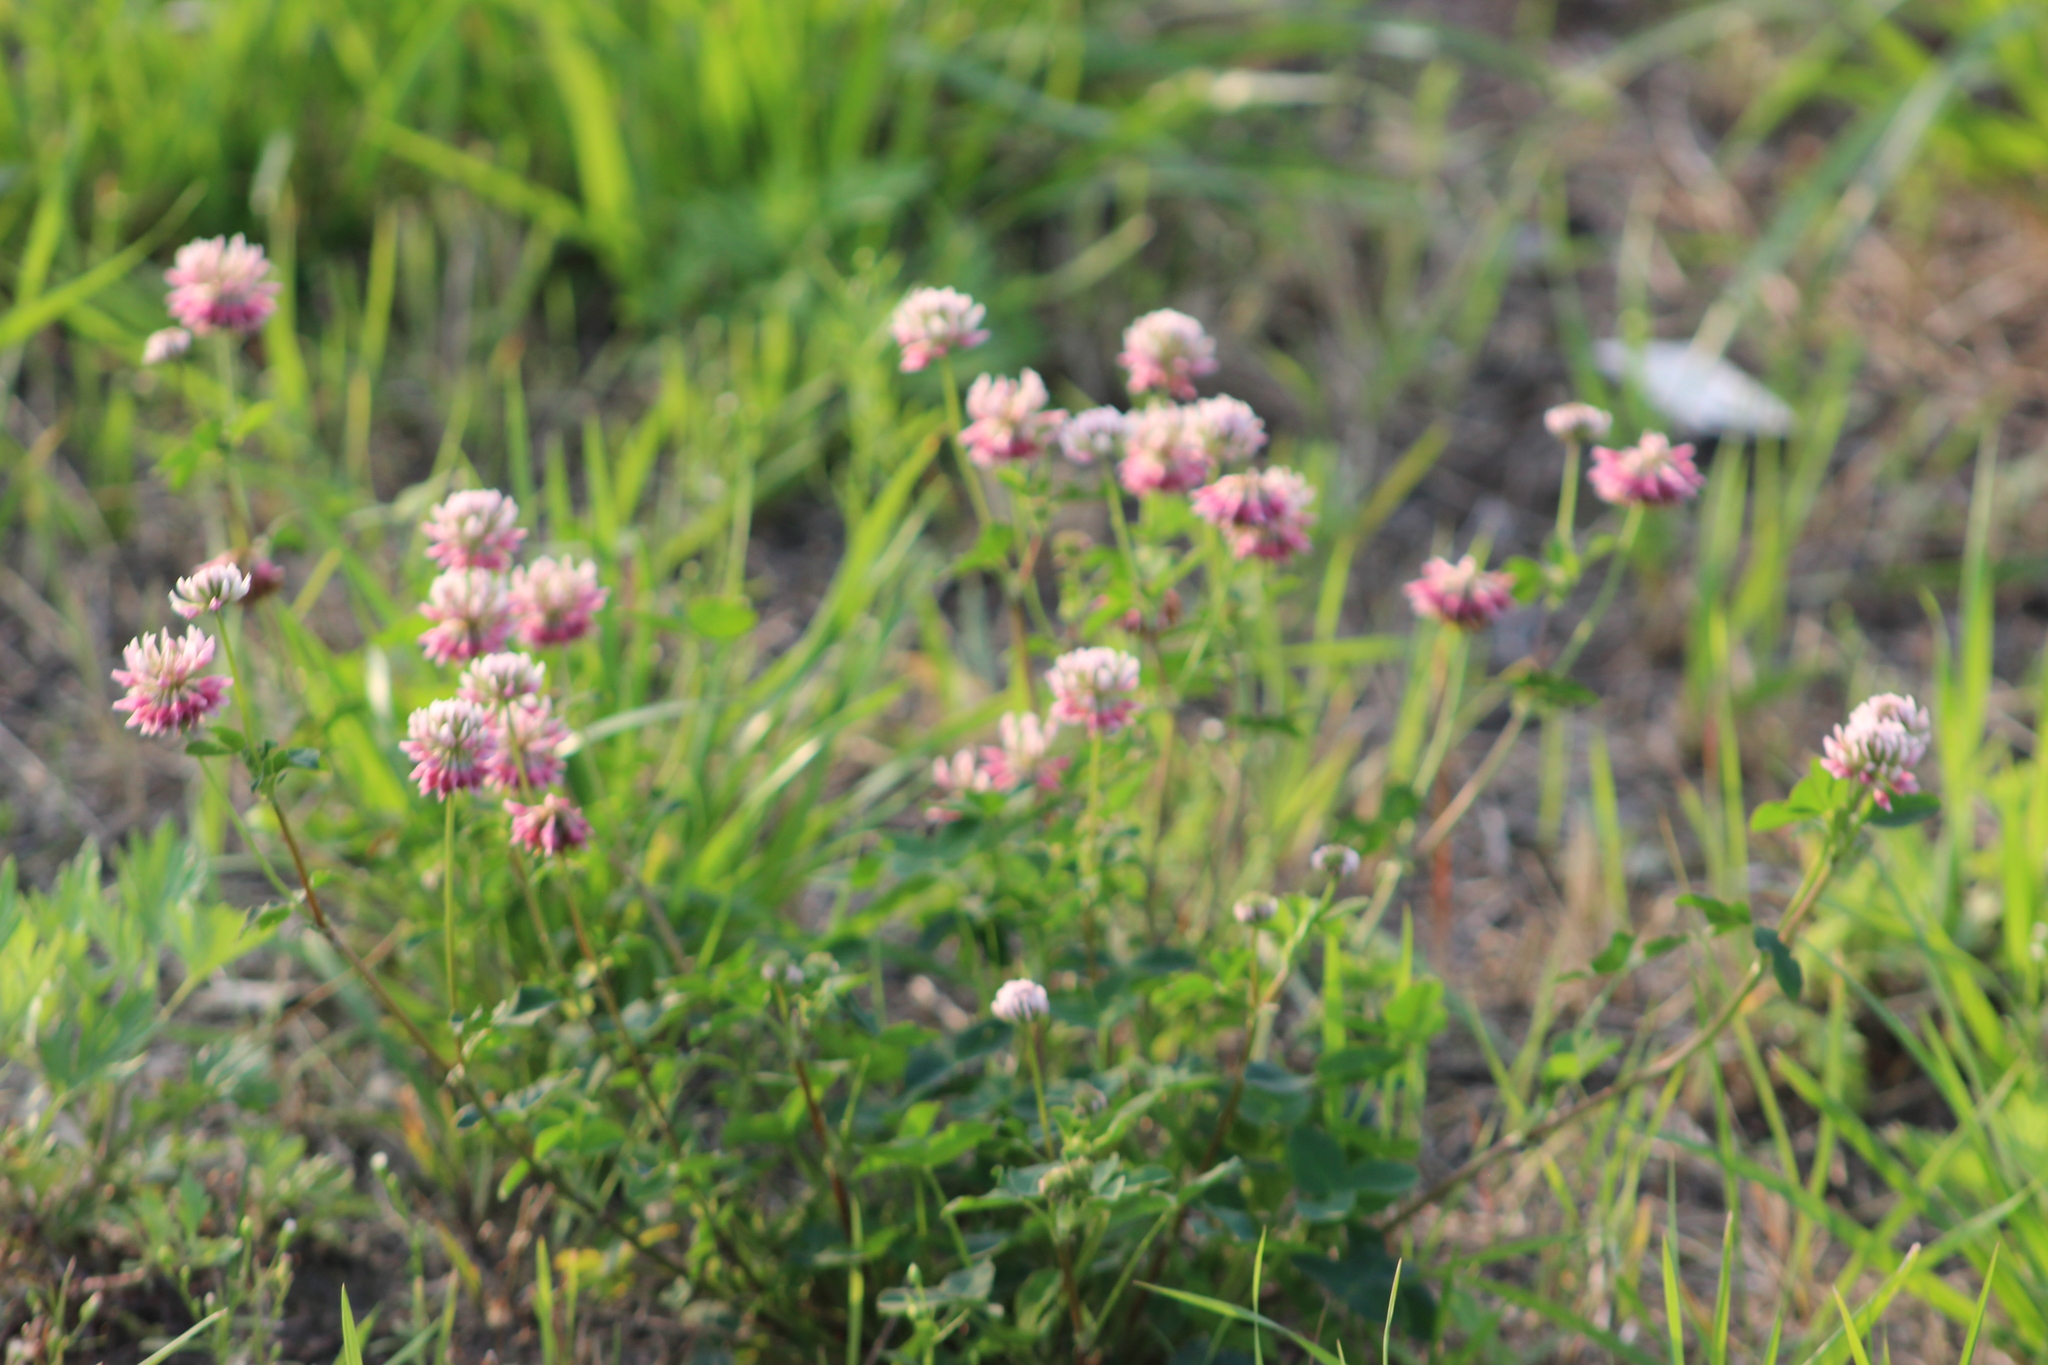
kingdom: Plantae
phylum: Tracheophyta
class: Magnoliopsida
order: Fabales
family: Fabaceae
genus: Trifolium
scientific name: Trifolium hybridum
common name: Alsike clover
